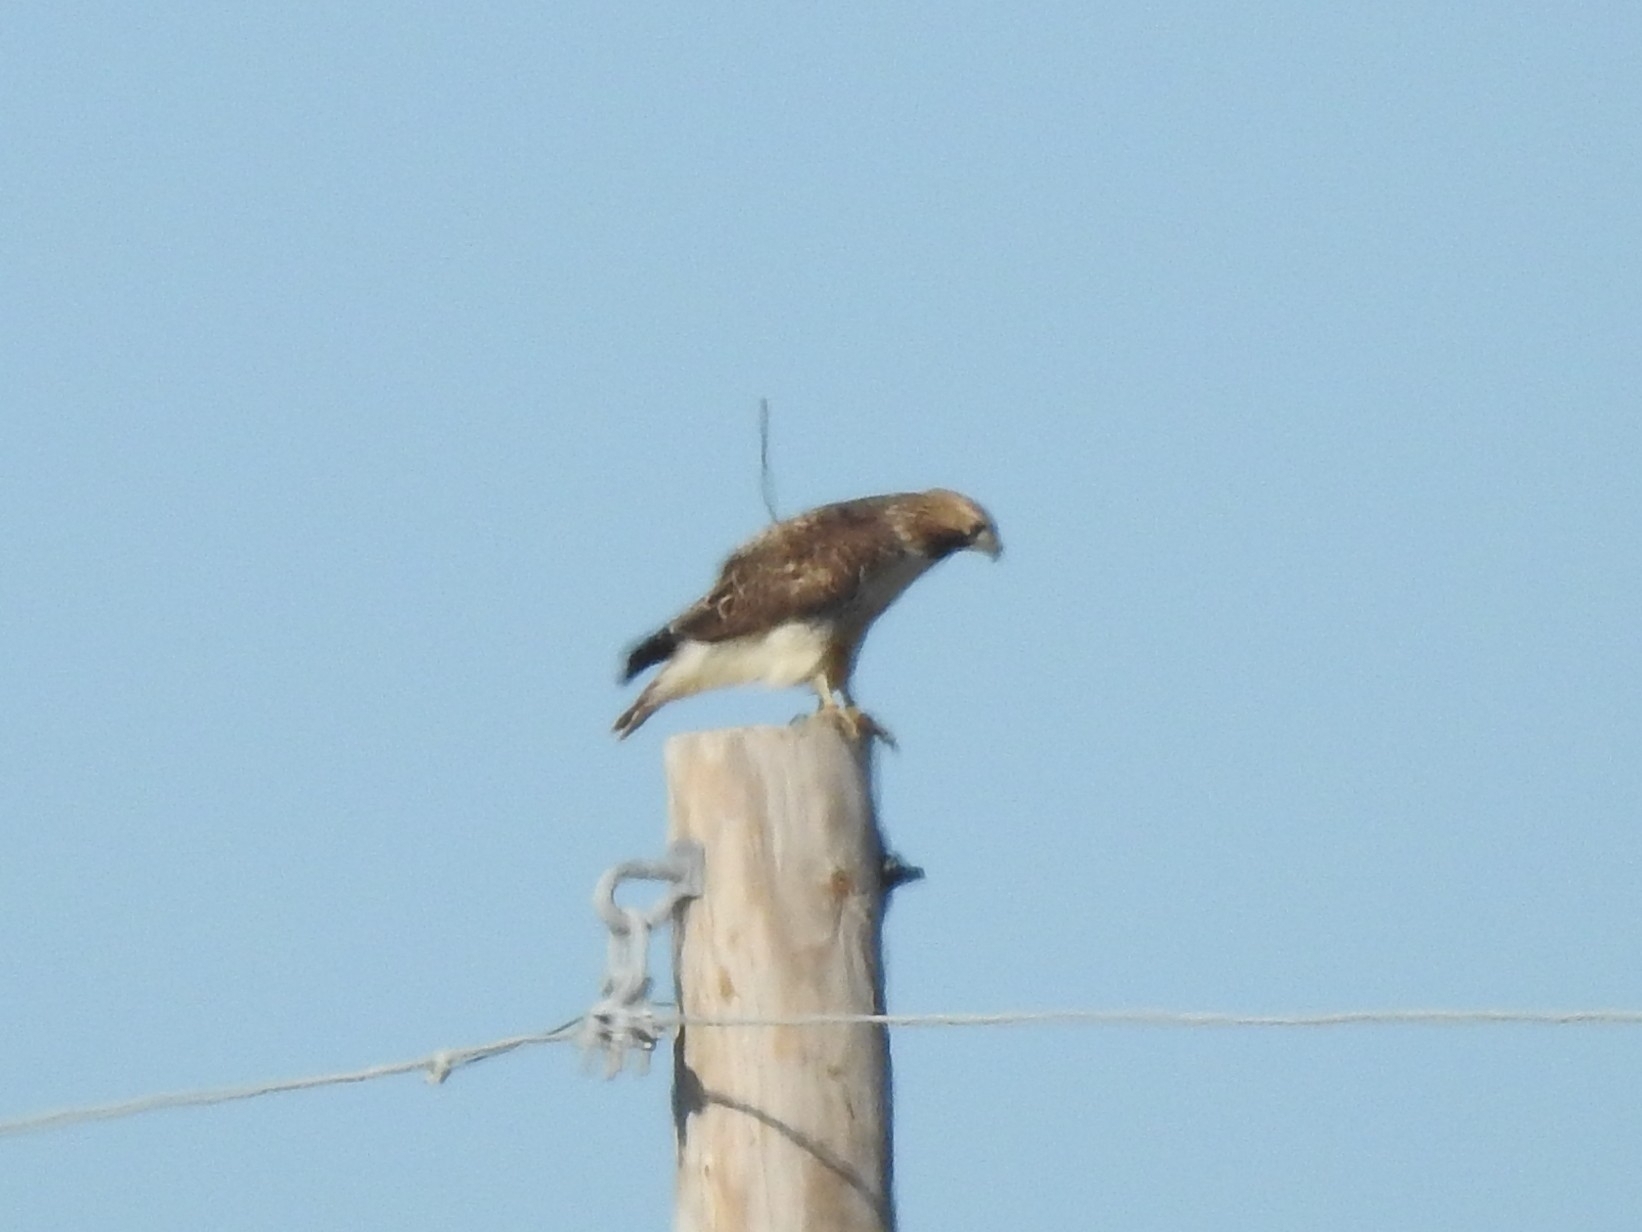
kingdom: Animalia
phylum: Chordata
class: Aves
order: Accipitriformes
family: Accipitridae
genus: Buteo
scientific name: Buteo jamaicensis
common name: Red-tailed hawk
